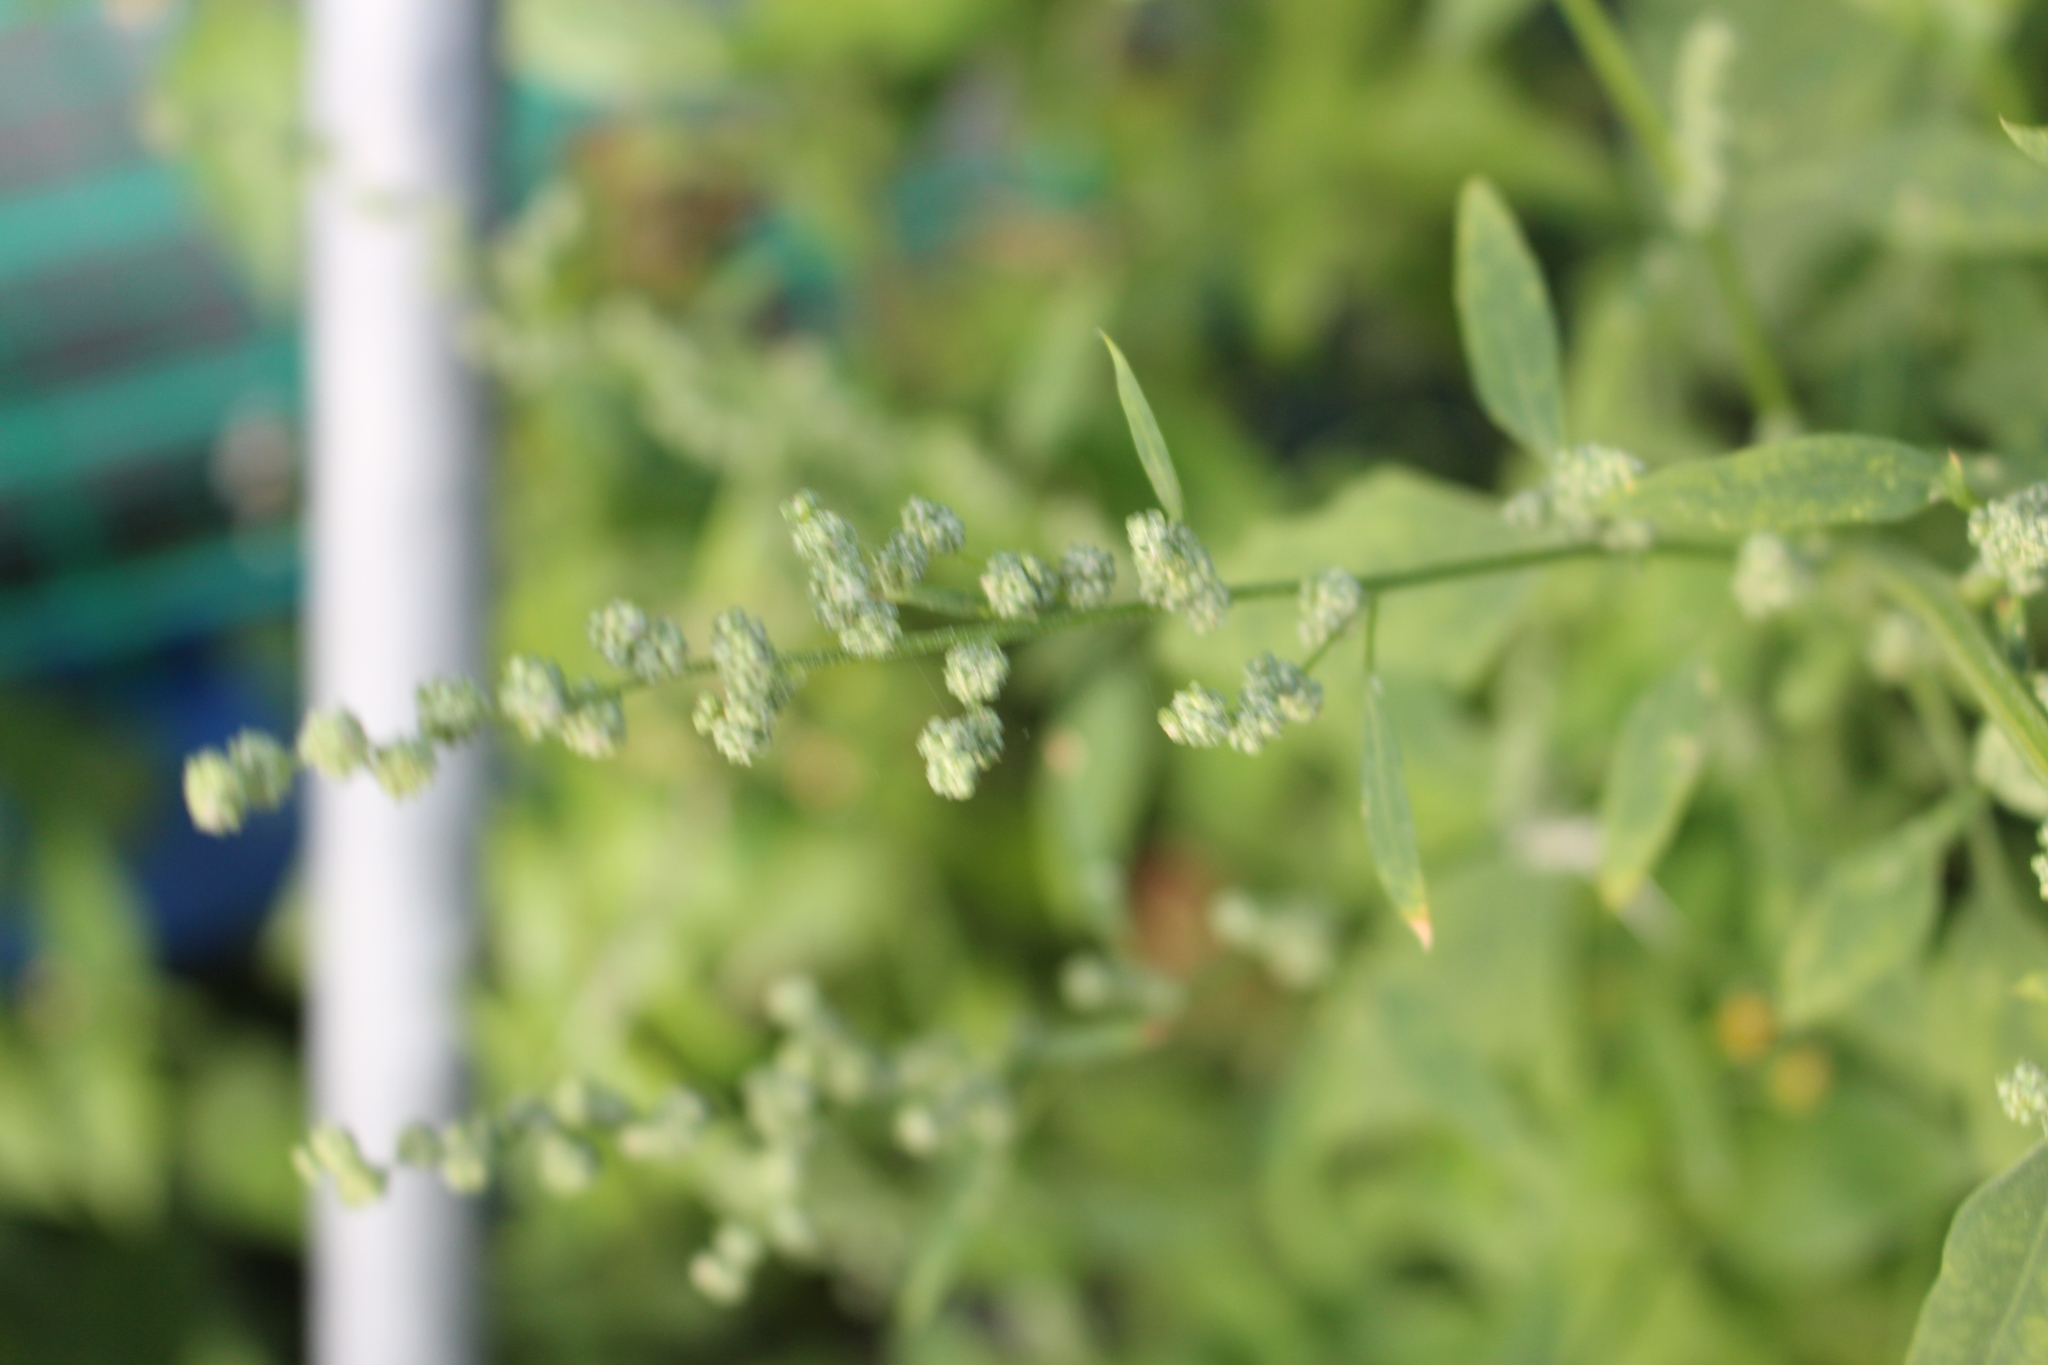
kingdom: Plantae
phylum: Tracheophyta
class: Magnoliopsida
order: Caryophyllales
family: Amaranthaceae
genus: Chenopodium
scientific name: Chenopodium album
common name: Fat-hen
